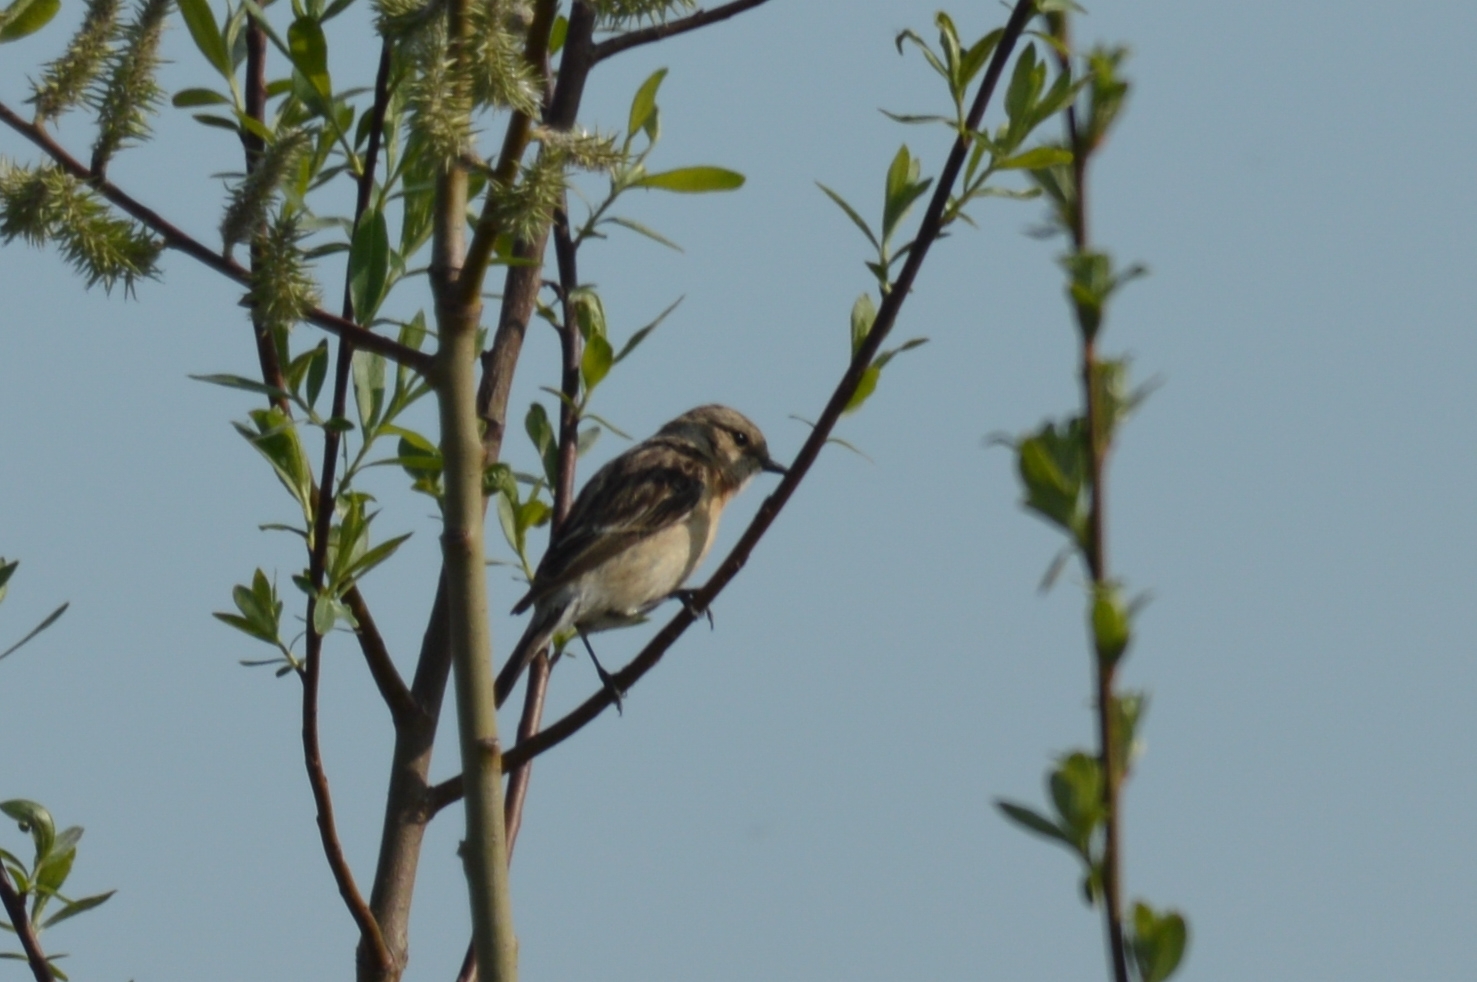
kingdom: Animalia
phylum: Chordata
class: Aves
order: Passeriformes
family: Muscicapidae
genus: Saxicola
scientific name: Saxicola maurus
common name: Siberian stonechat
